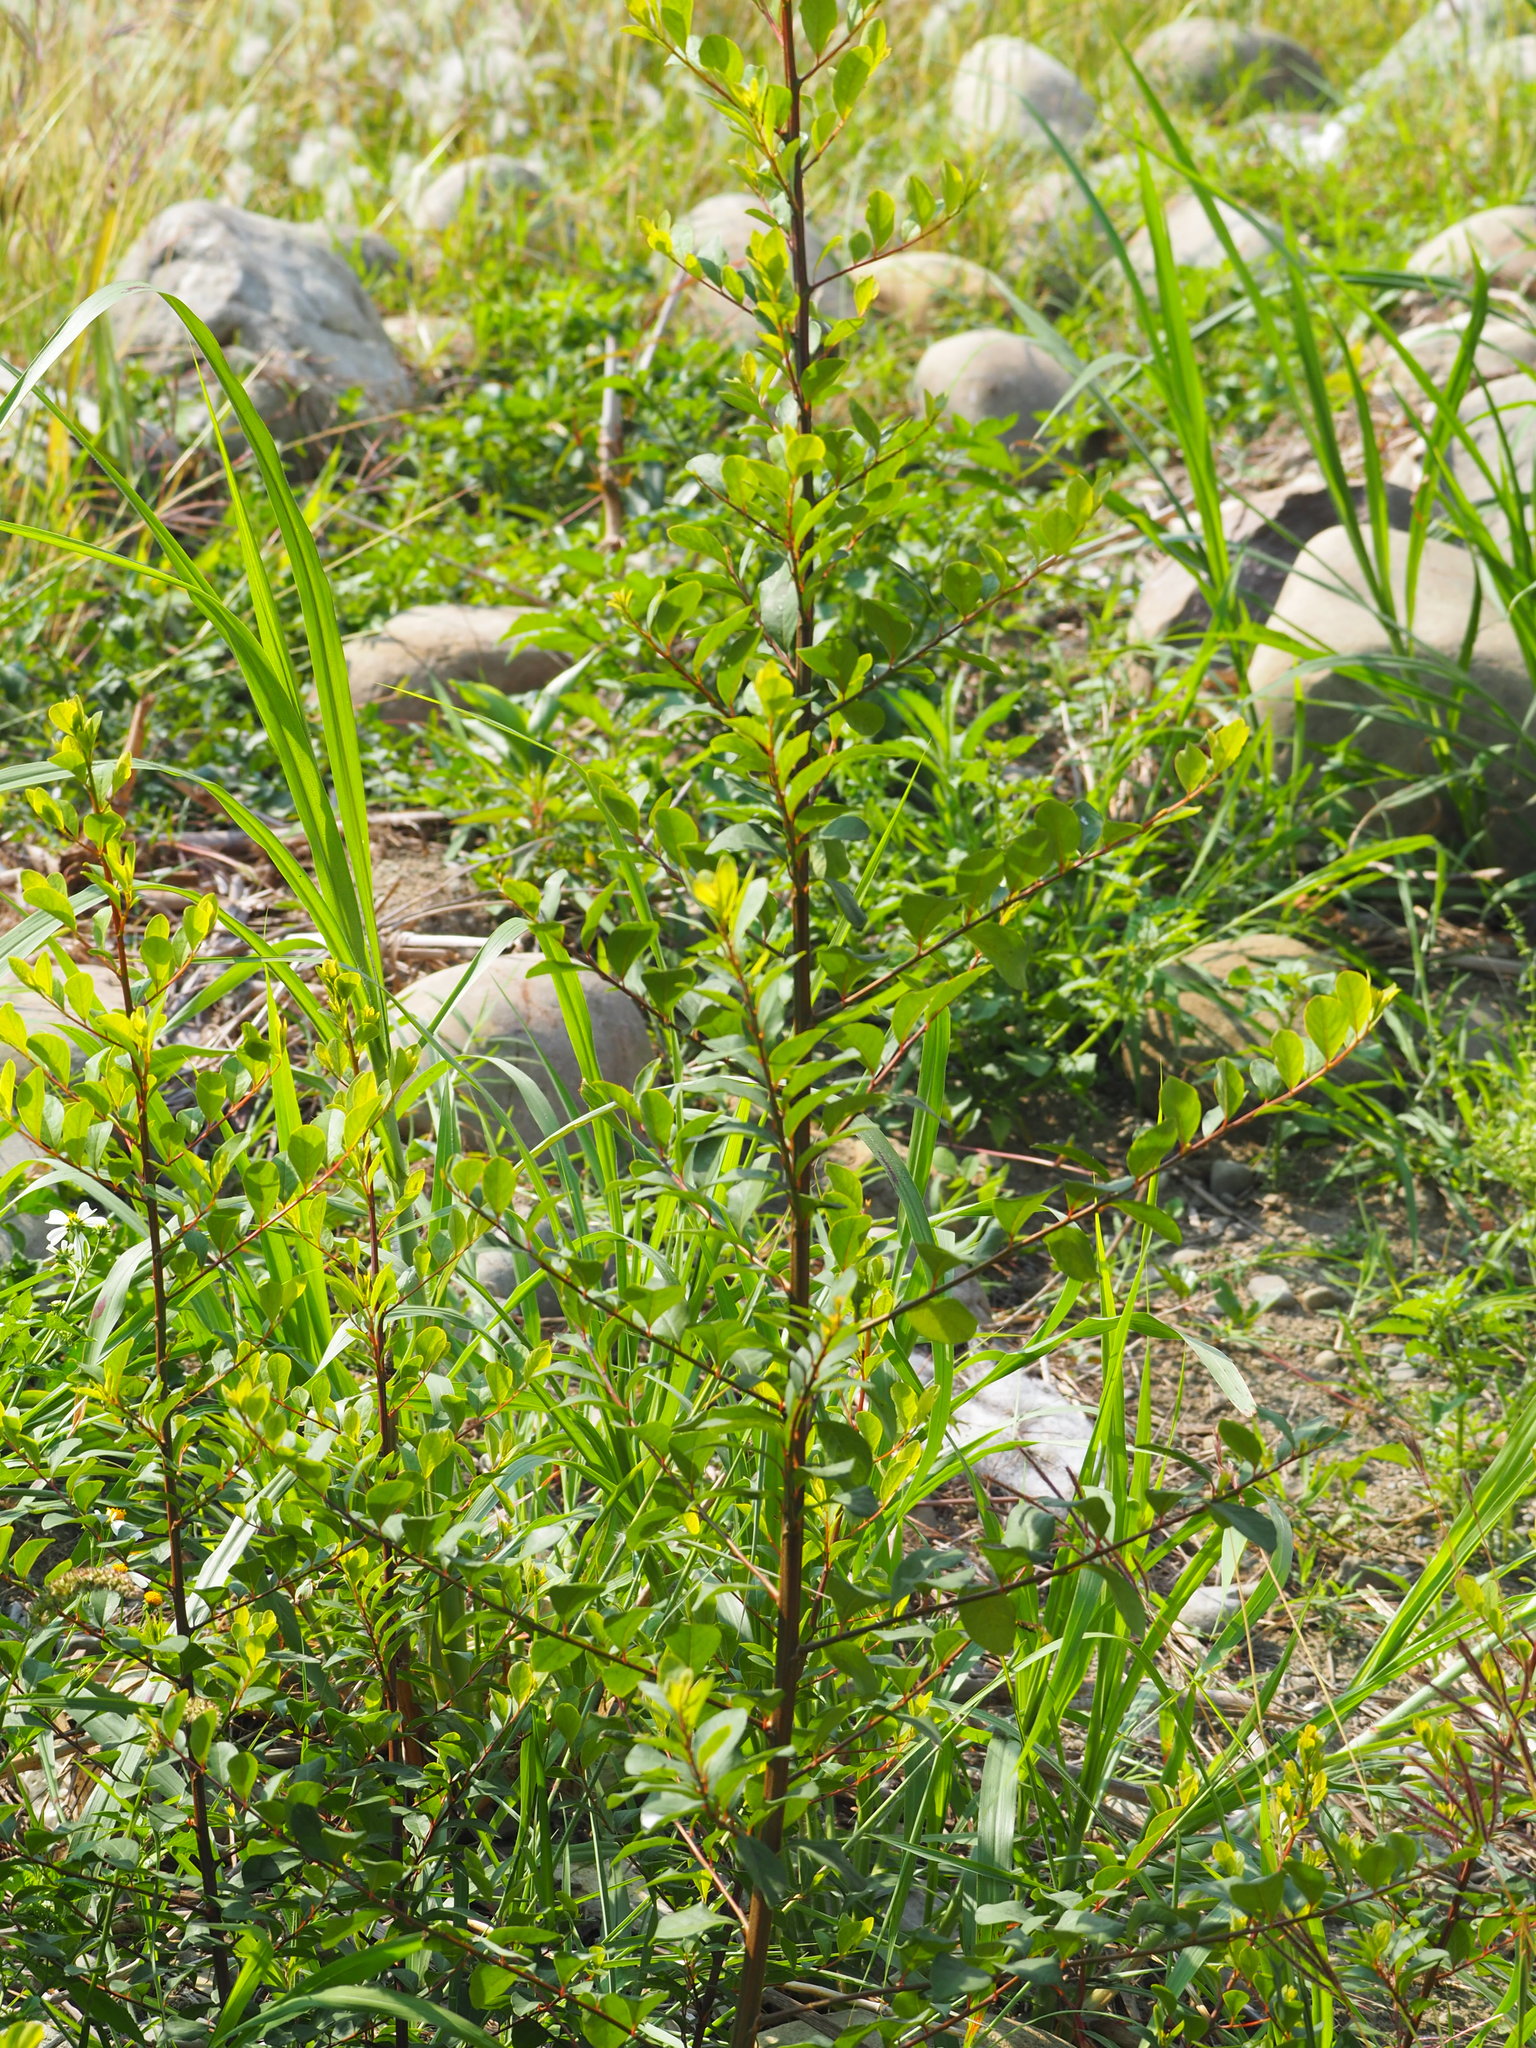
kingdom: Plantae
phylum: Tracheophyta
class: Magnoliopsida
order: Malpighiales
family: Phyllanthaceae
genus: Flueggea
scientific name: Flueggea virosa
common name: Common bushweed
